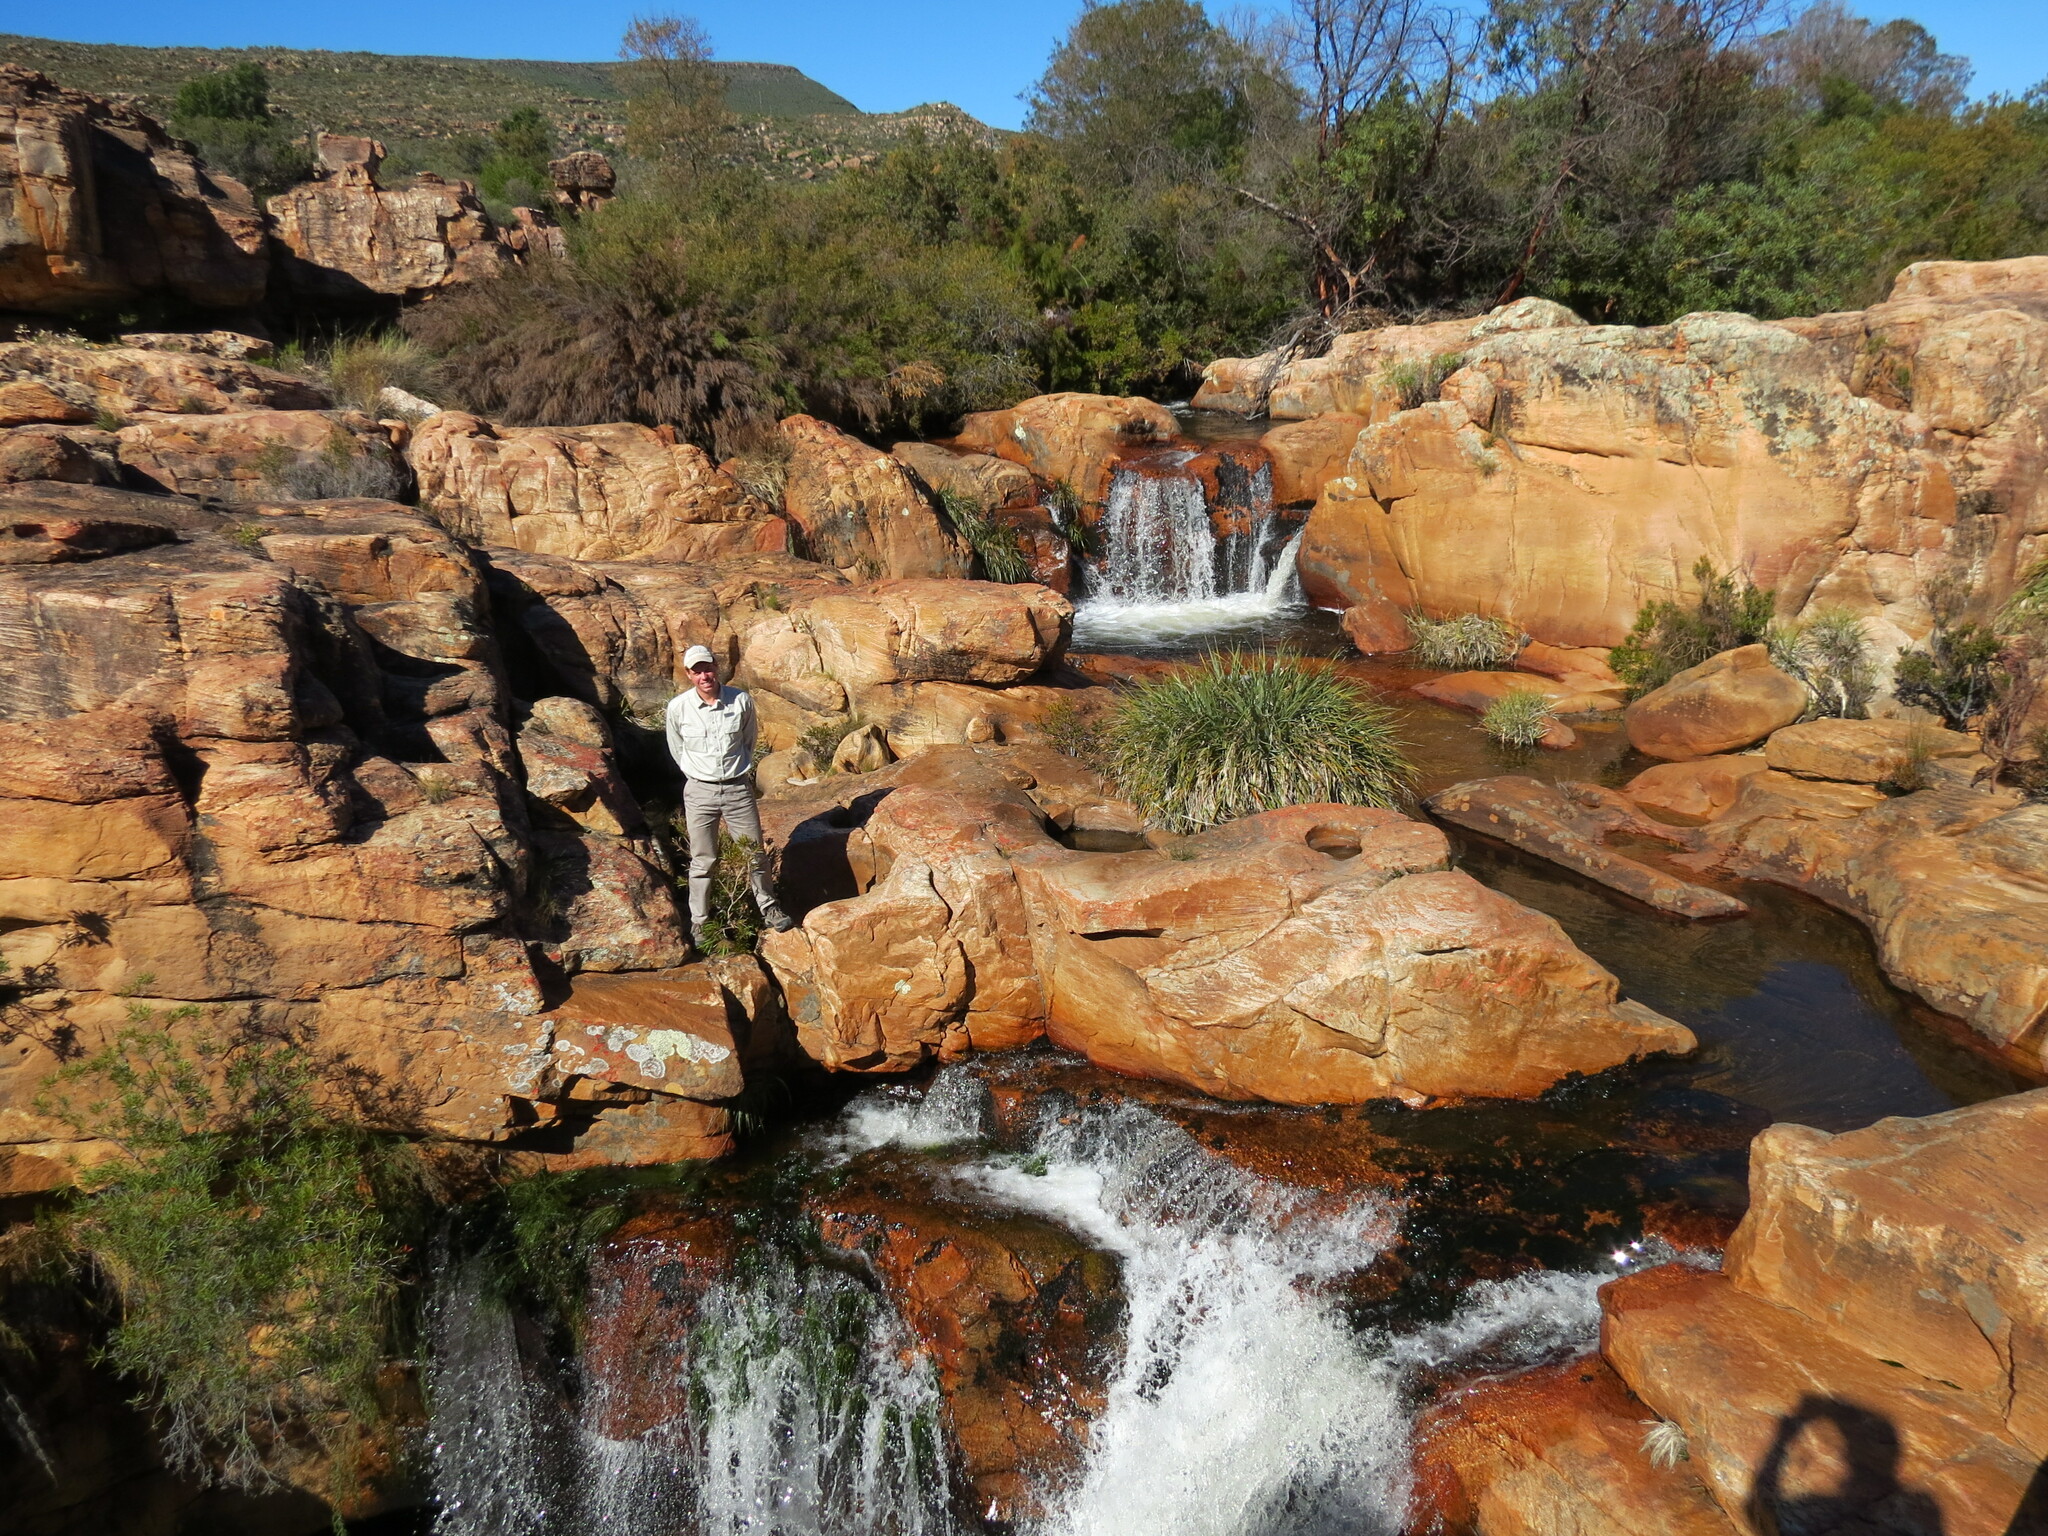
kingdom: Plantae
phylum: Tracheophyta
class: Liliopsida
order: Poales
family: Thurniaceae
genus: Prionium
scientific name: Prionium serratum
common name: Palmiet
